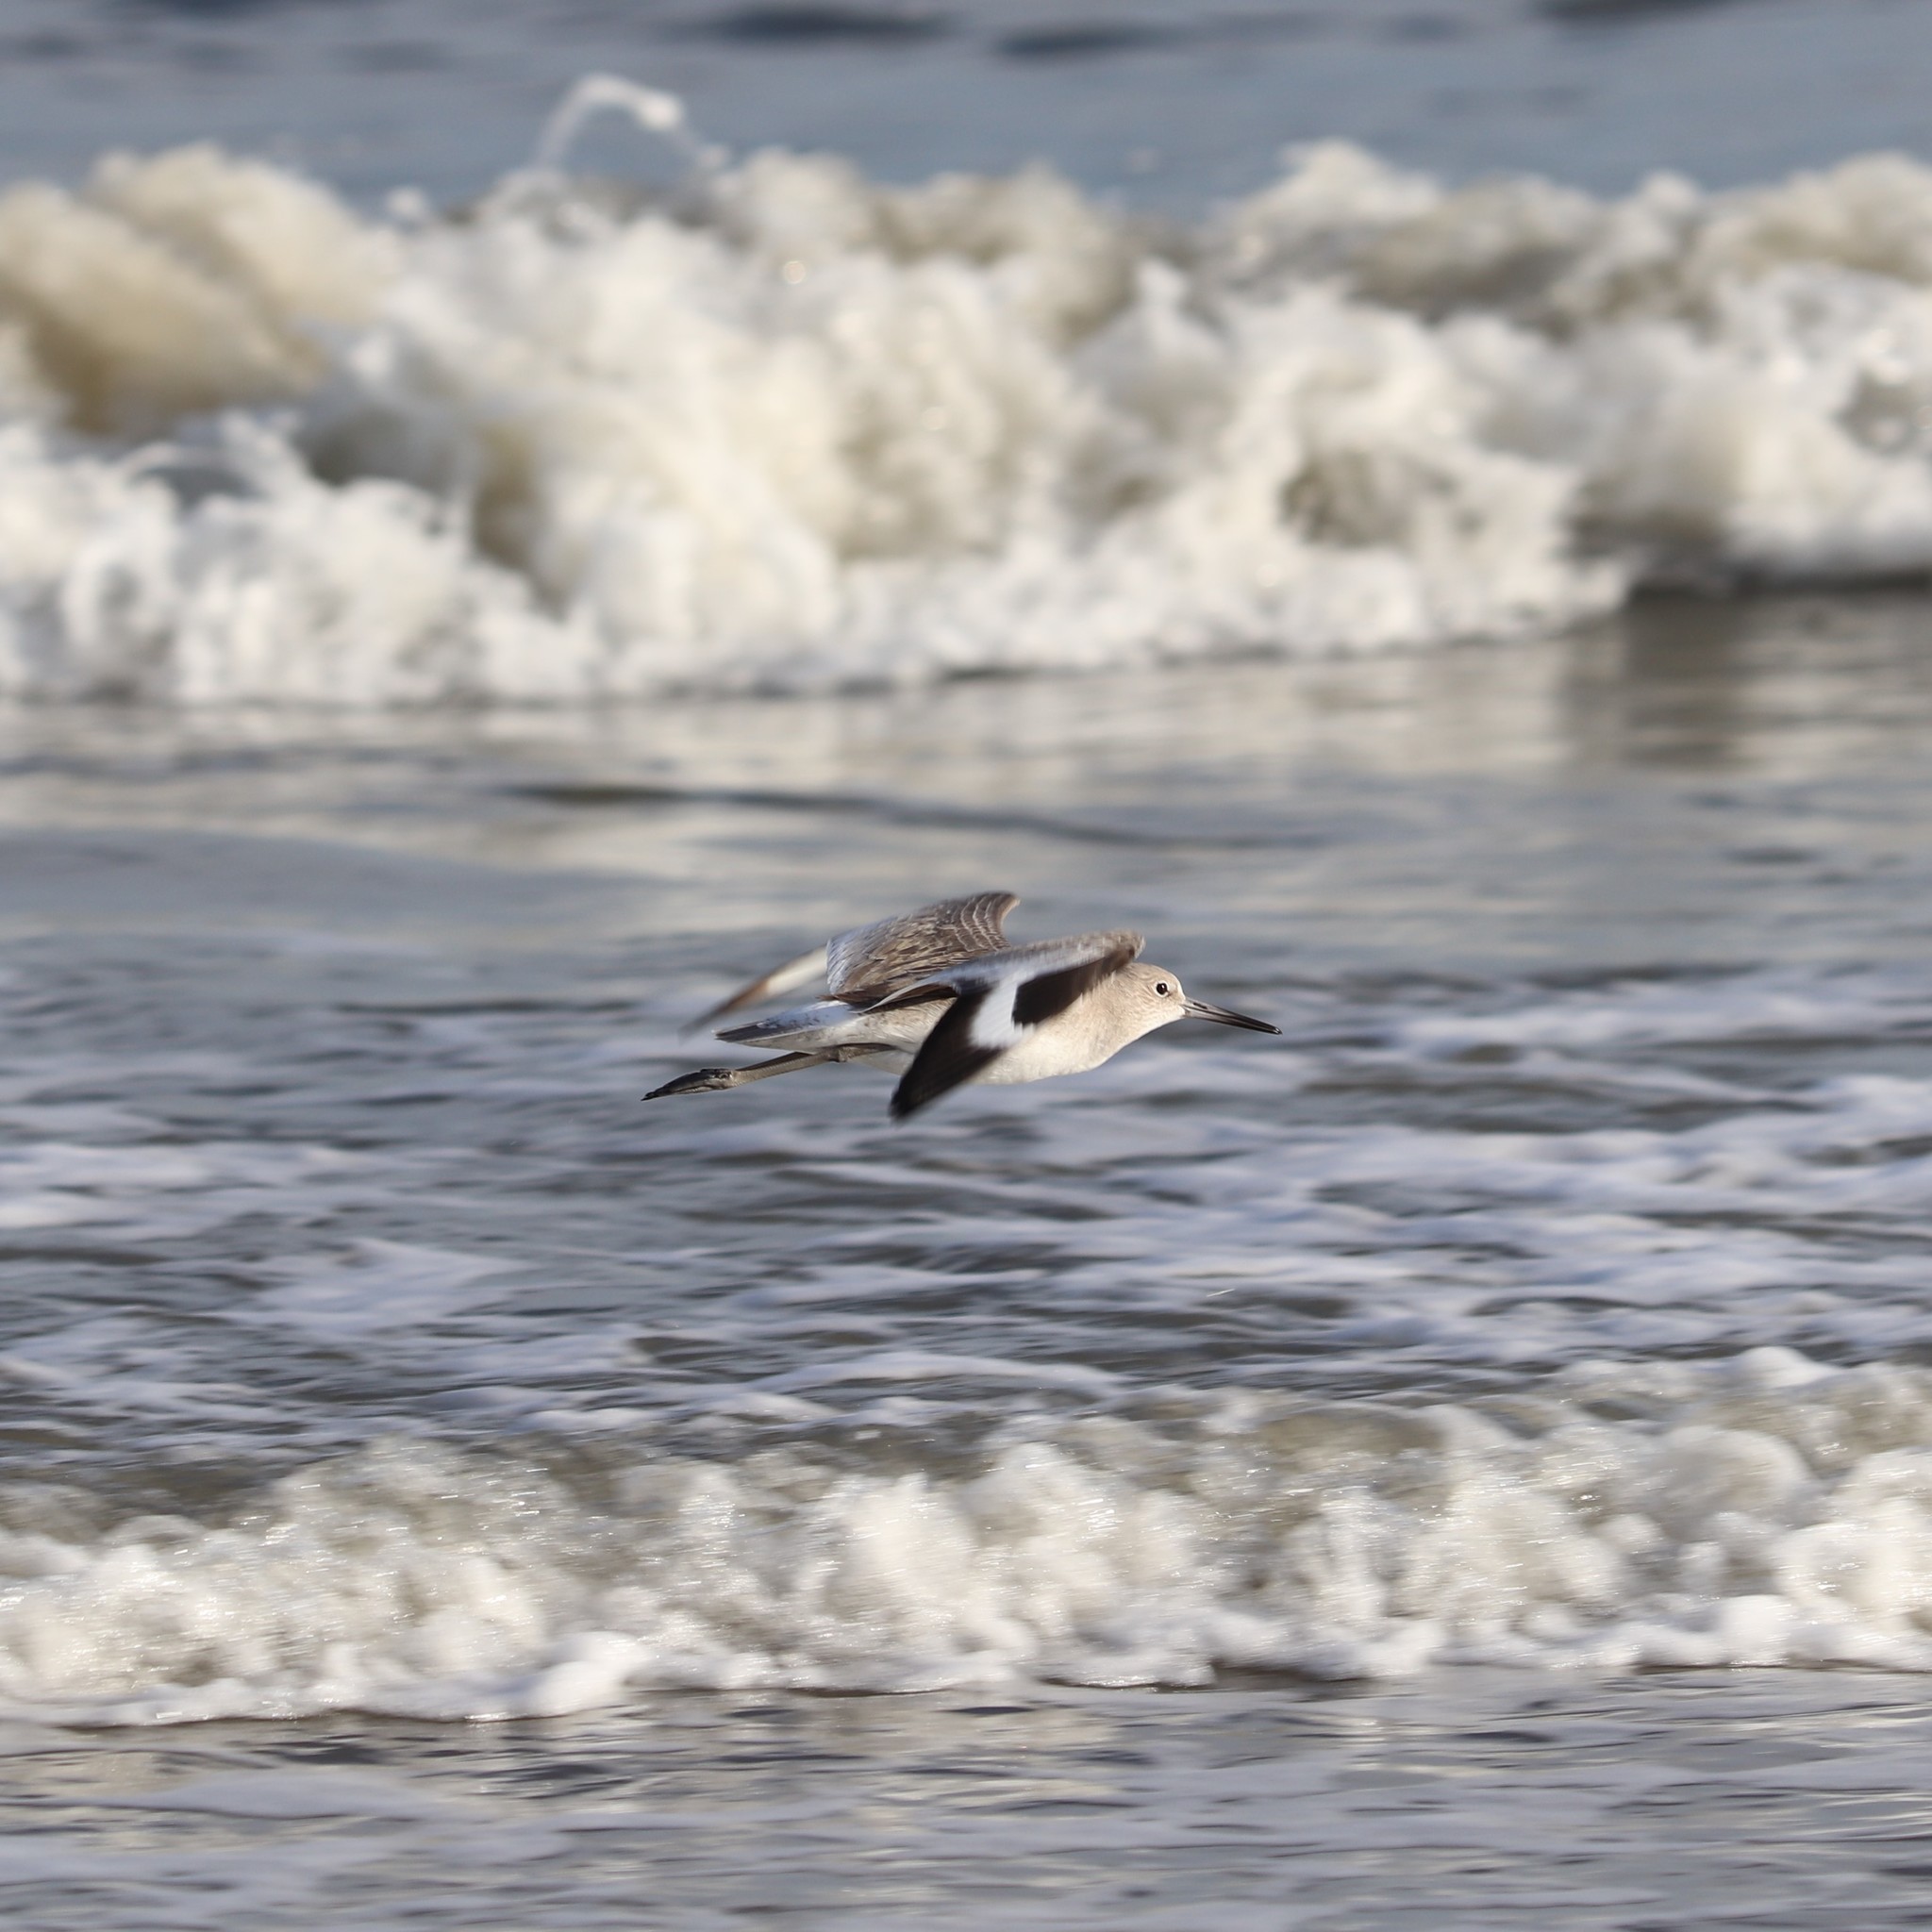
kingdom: Animalia
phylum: Chordata
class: Aves
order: Charadriiformes
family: Scolopacidae
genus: Tringa
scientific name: Tringa semipalmata
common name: Willet
